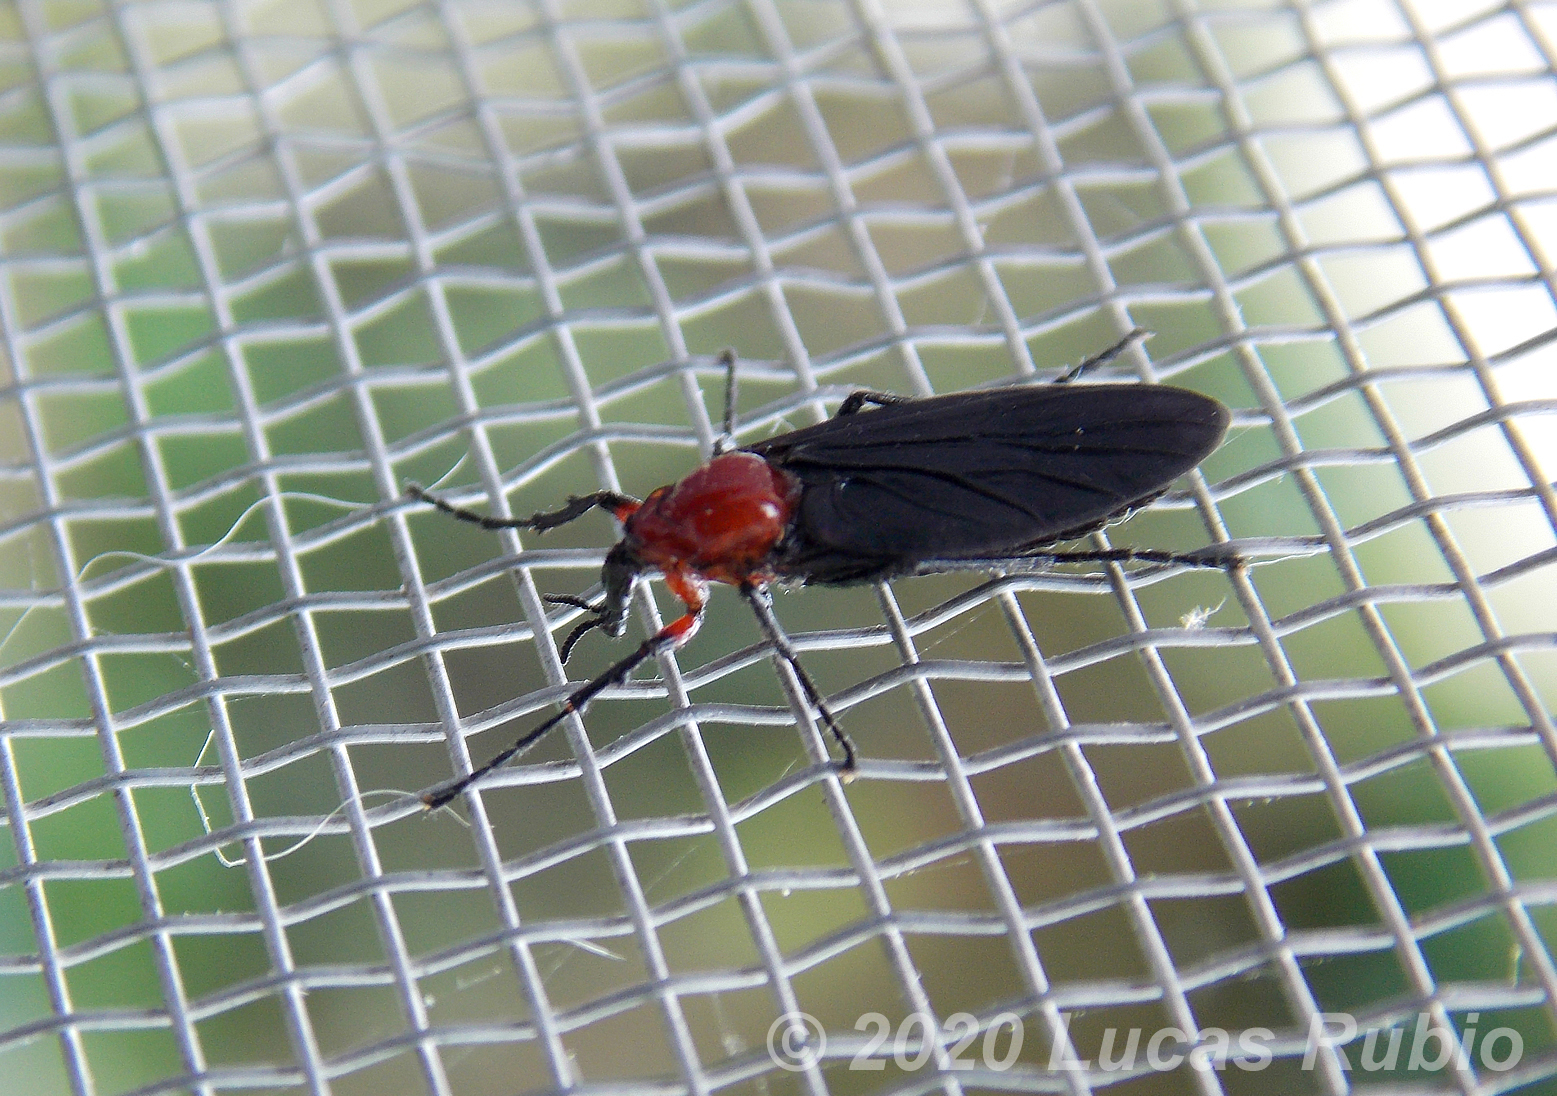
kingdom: Animalia
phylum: Arthropoda
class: Insecta
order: Diptera
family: Bibionidae
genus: Dilophus
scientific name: Dilophus pectoralis
